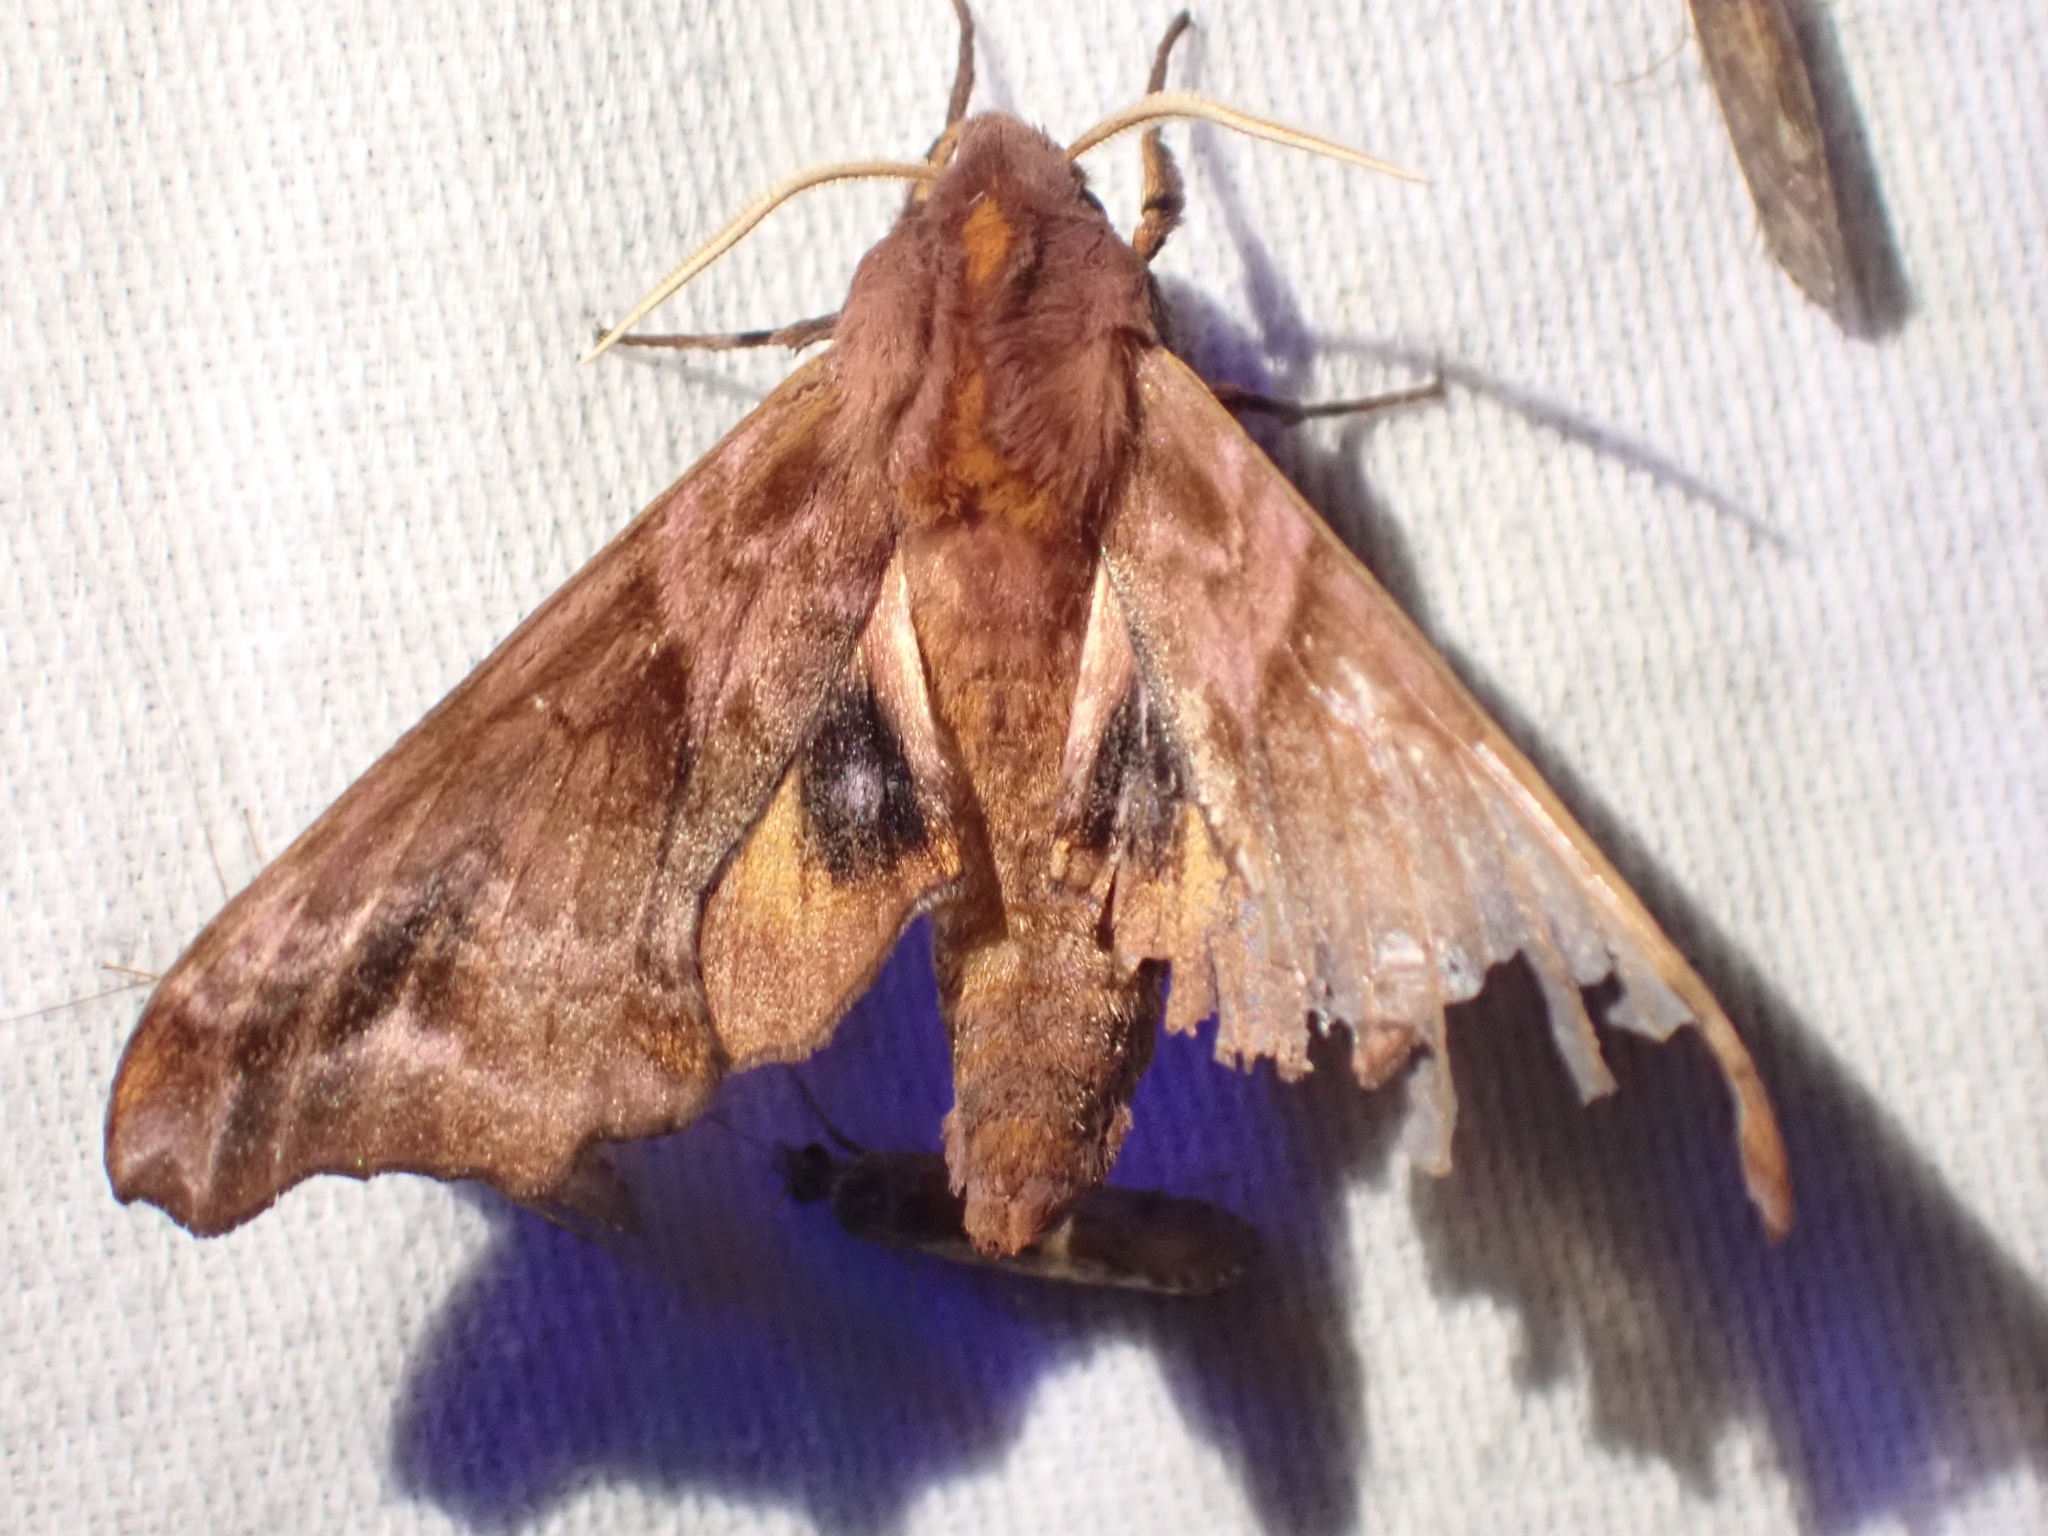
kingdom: Animalia
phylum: Arthropoda
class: Insecta
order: Lepidoptera
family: Sphingidae
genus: Paonias
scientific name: Paonias myops
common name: Small-eyed sphinx
